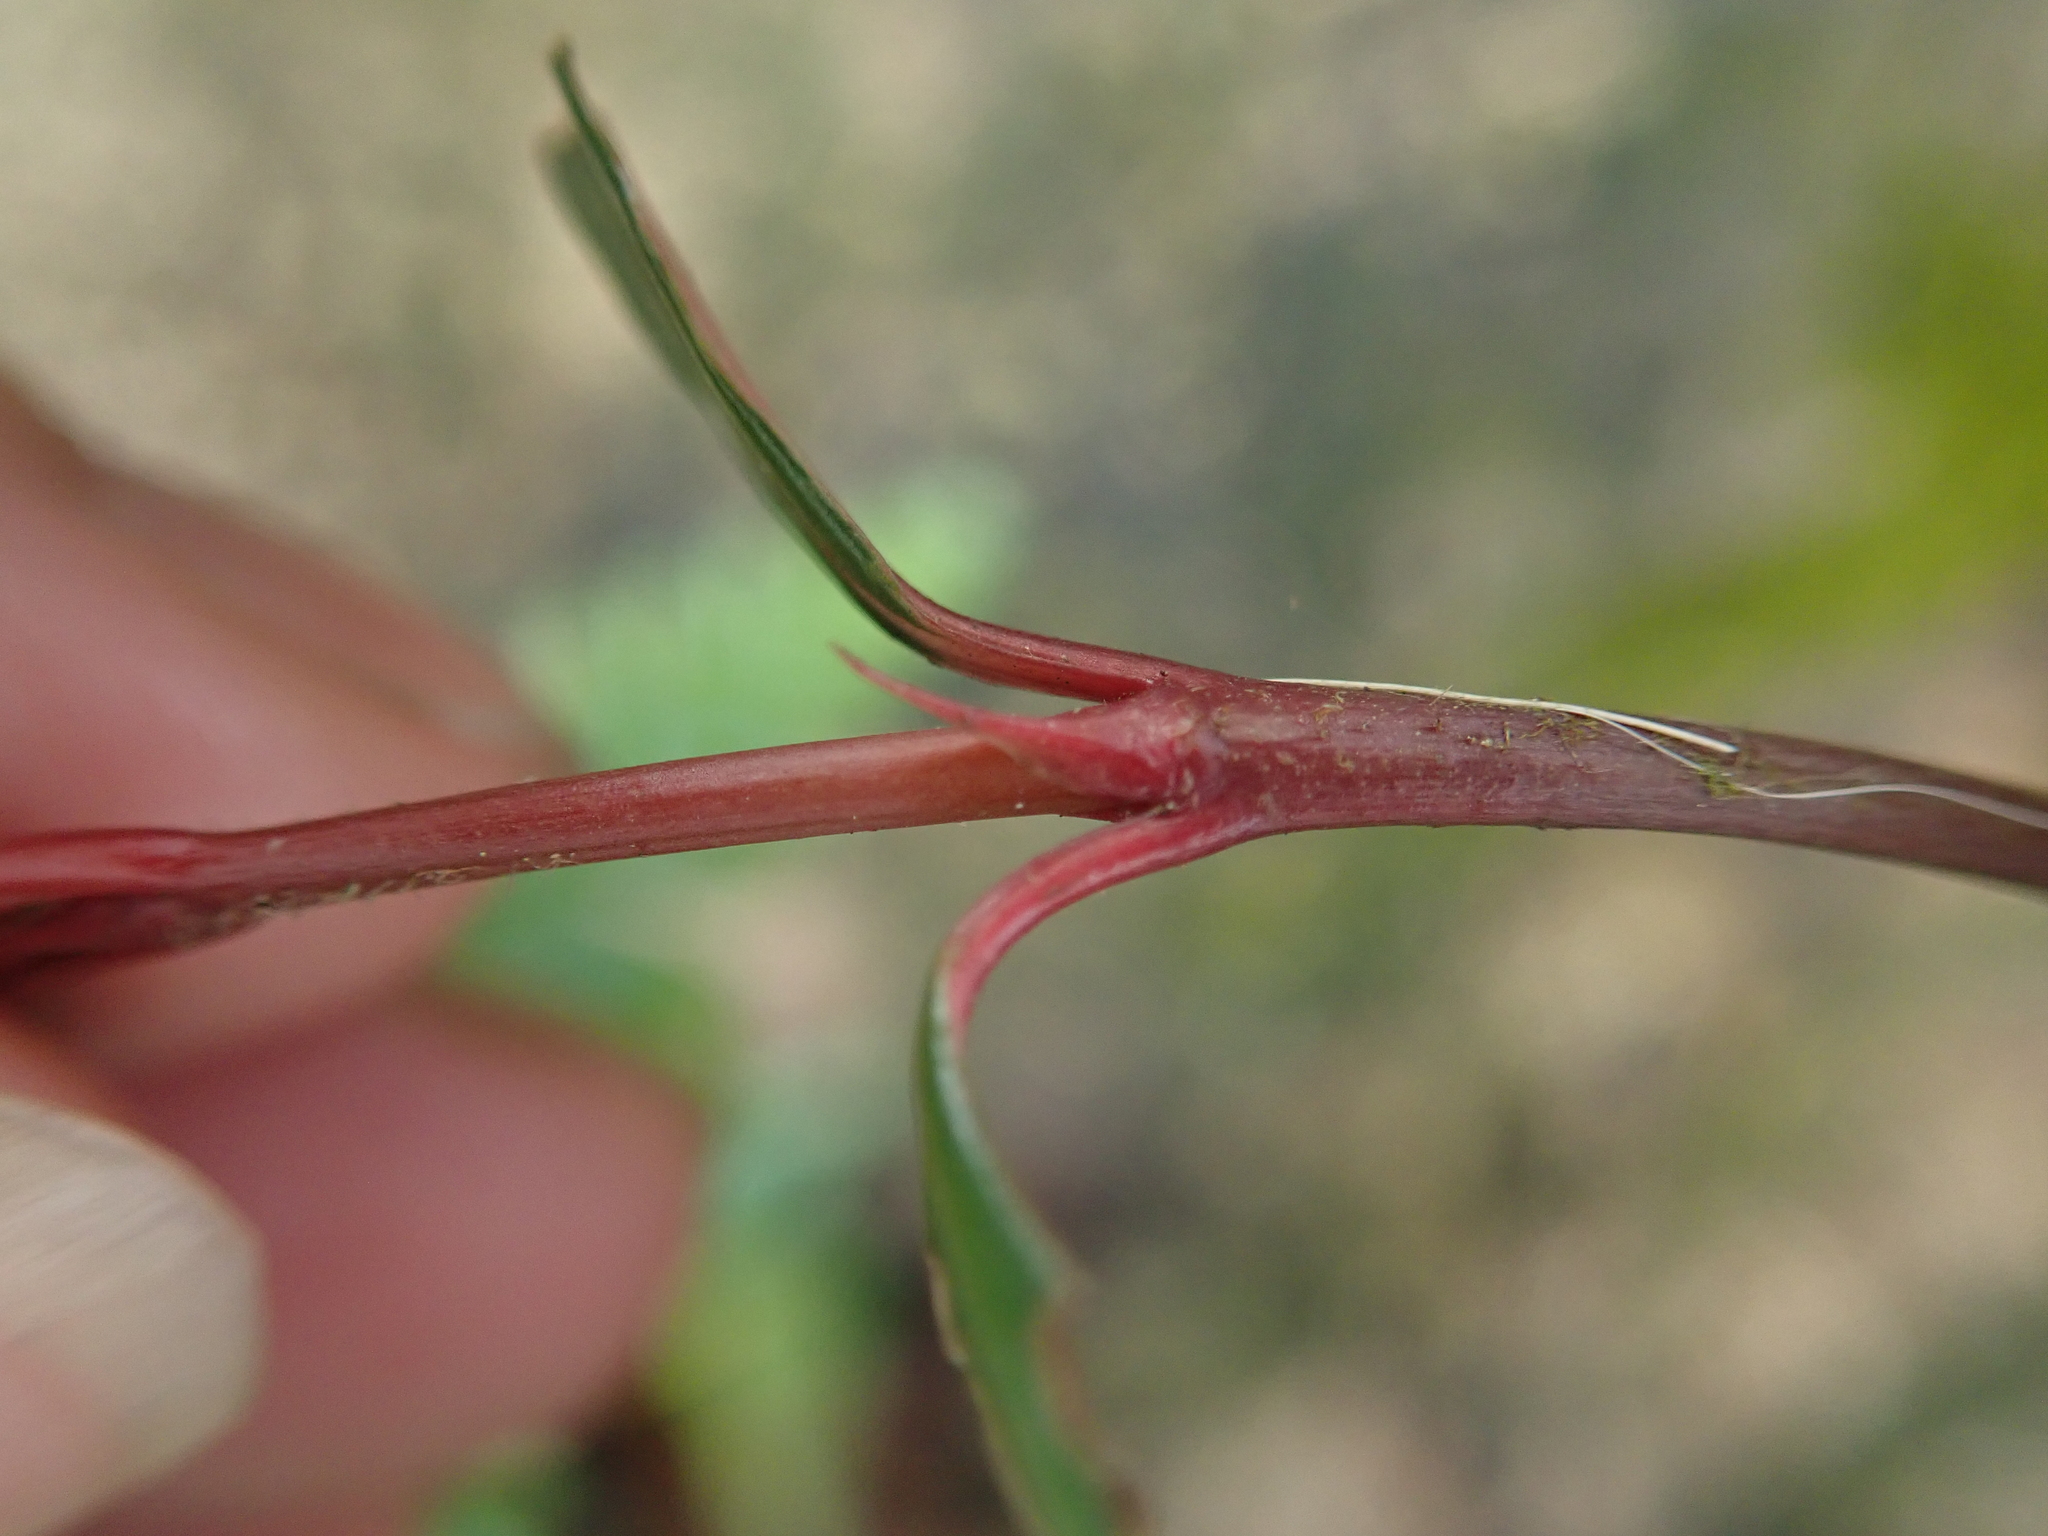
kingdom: Plantae
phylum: Tracheophyta
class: Magnoliopsida
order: Gentianales
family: Rubiaceae
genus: Aidia
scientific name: Aidia cochinchinensis
